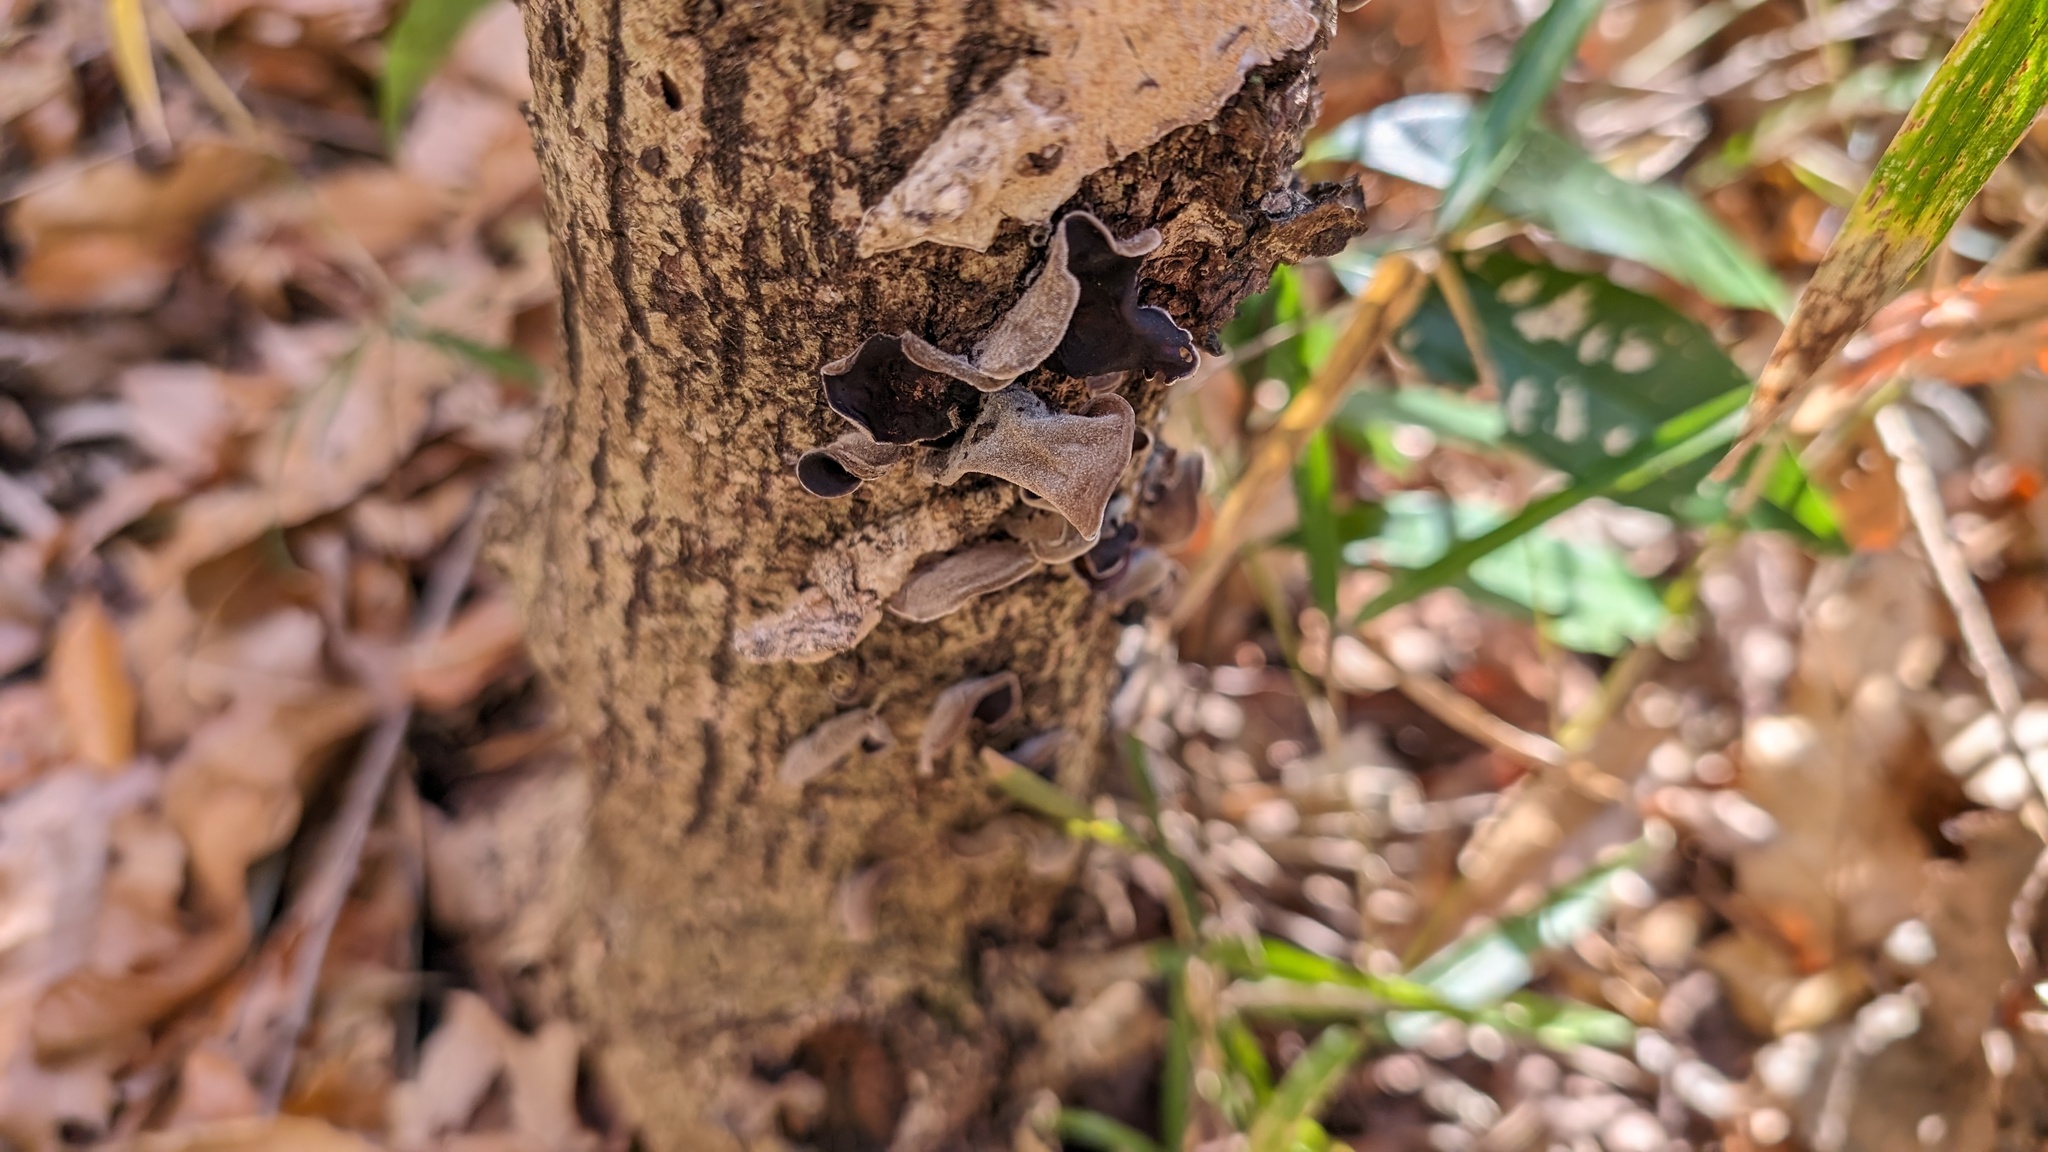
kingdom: Fungi
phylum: Basidiomycota
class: Agaricomycetes
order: Auriculariales
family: Auriculariaceae
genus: Auricularia
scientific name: Auricularia nigricans
